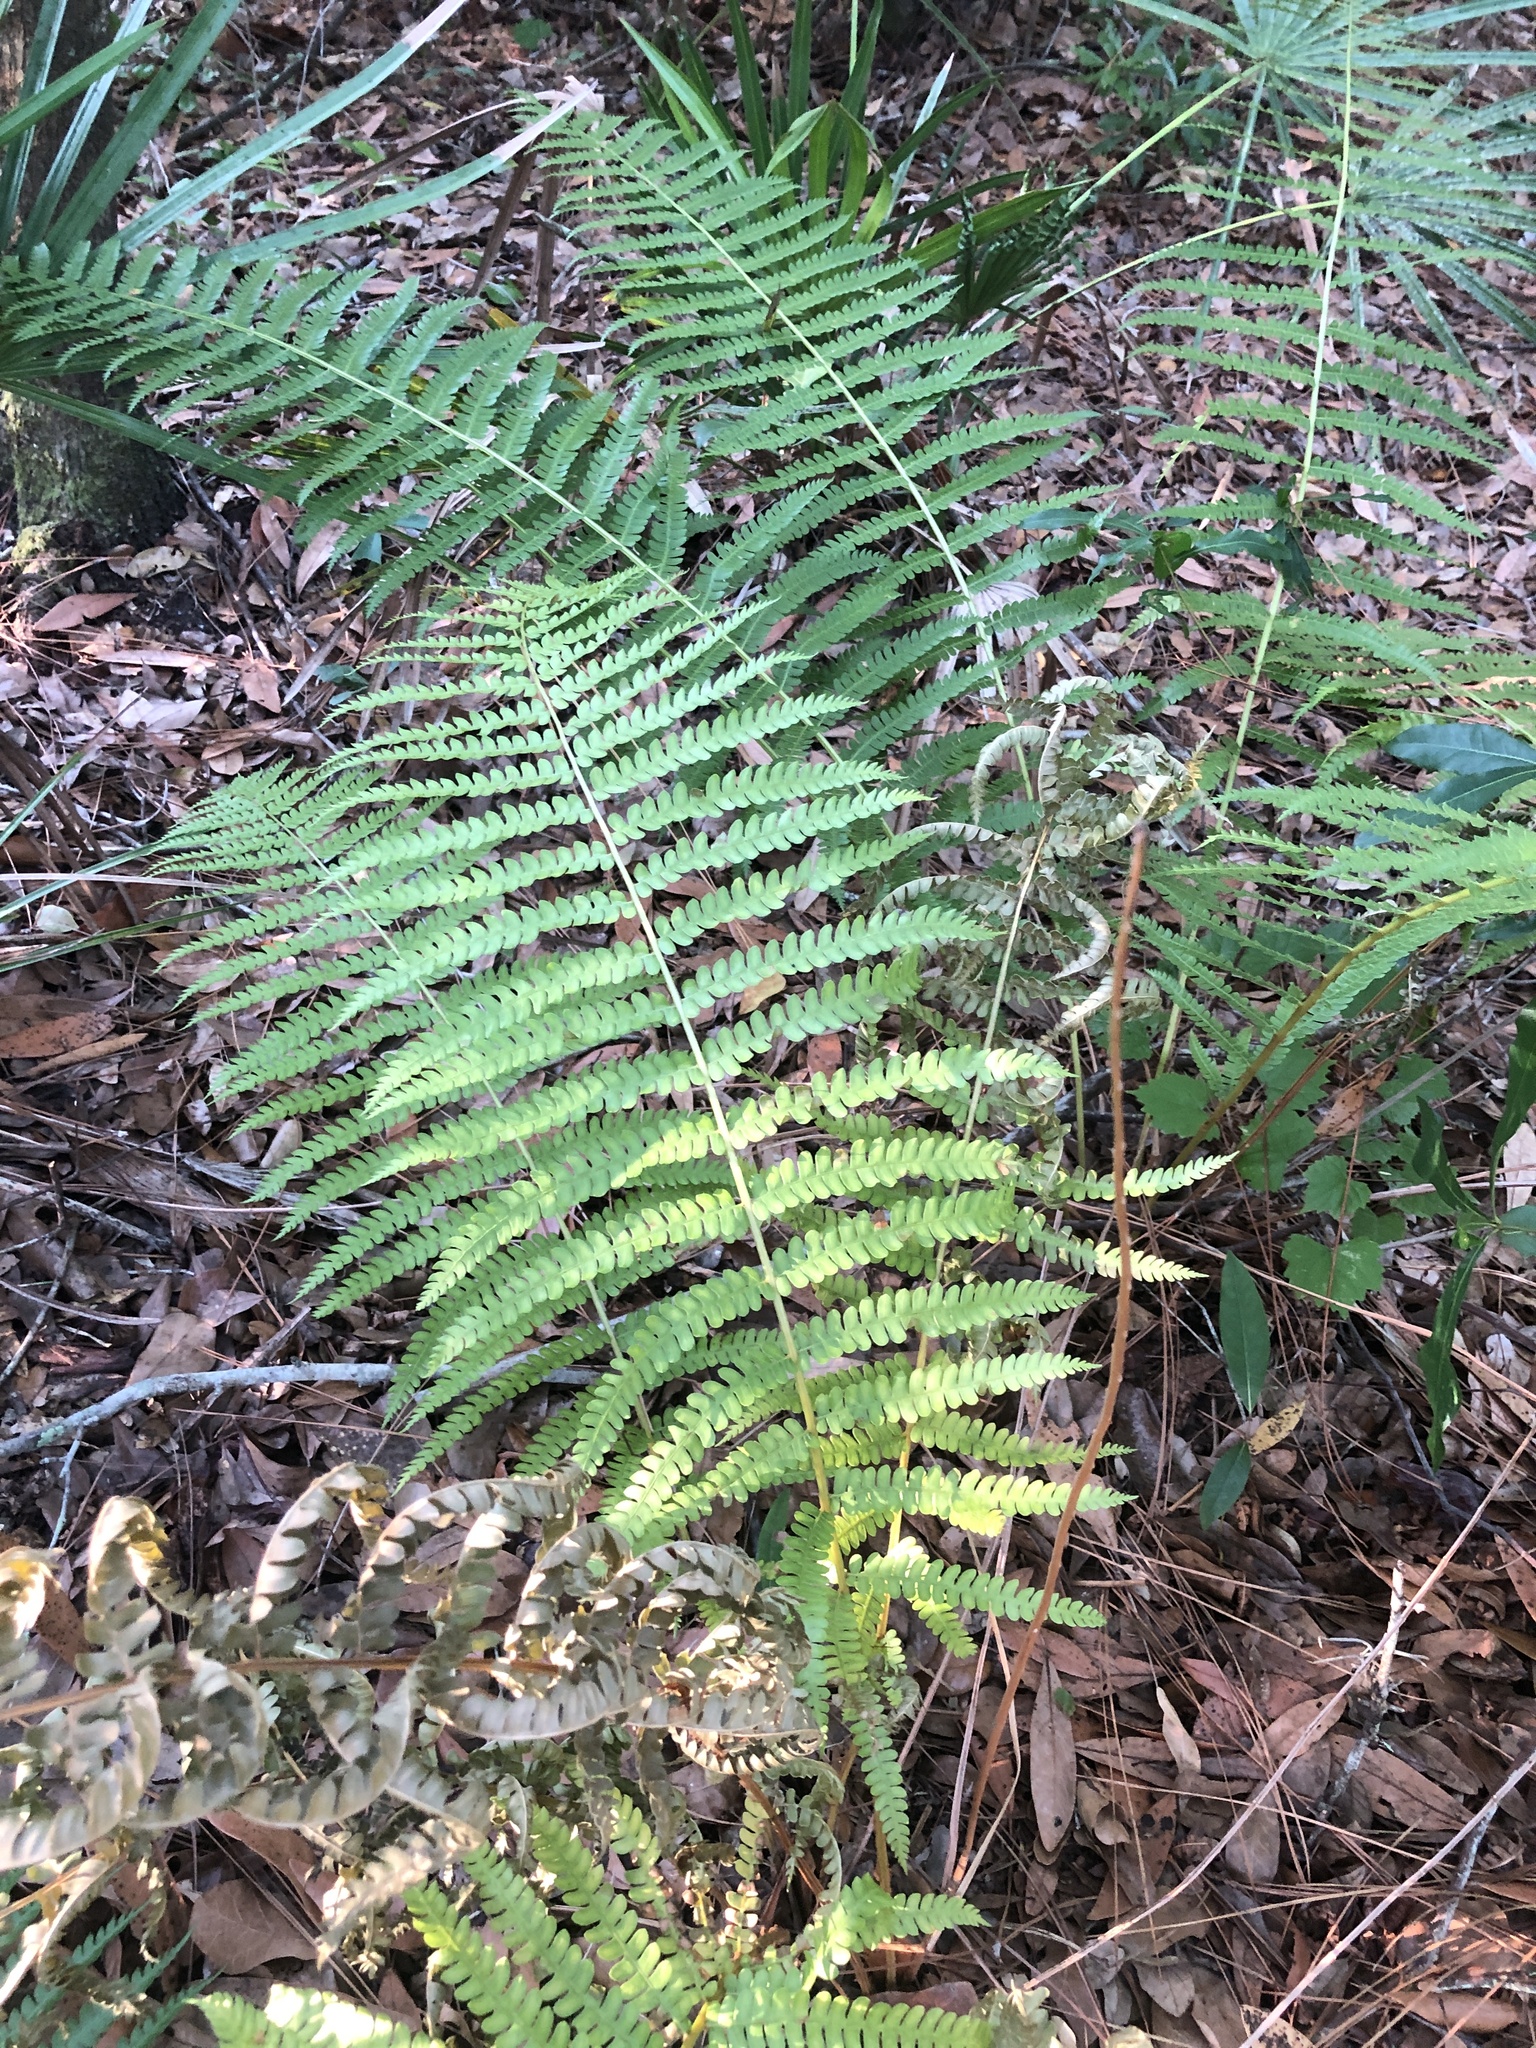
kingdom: Plantae
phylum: Tracheophyta
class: Polypodiopsida
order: Osmundales
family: Osmundaceae
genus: Osmundastrum
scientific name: Osmundastrum cinnamomeum
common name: Cinnamon fern
